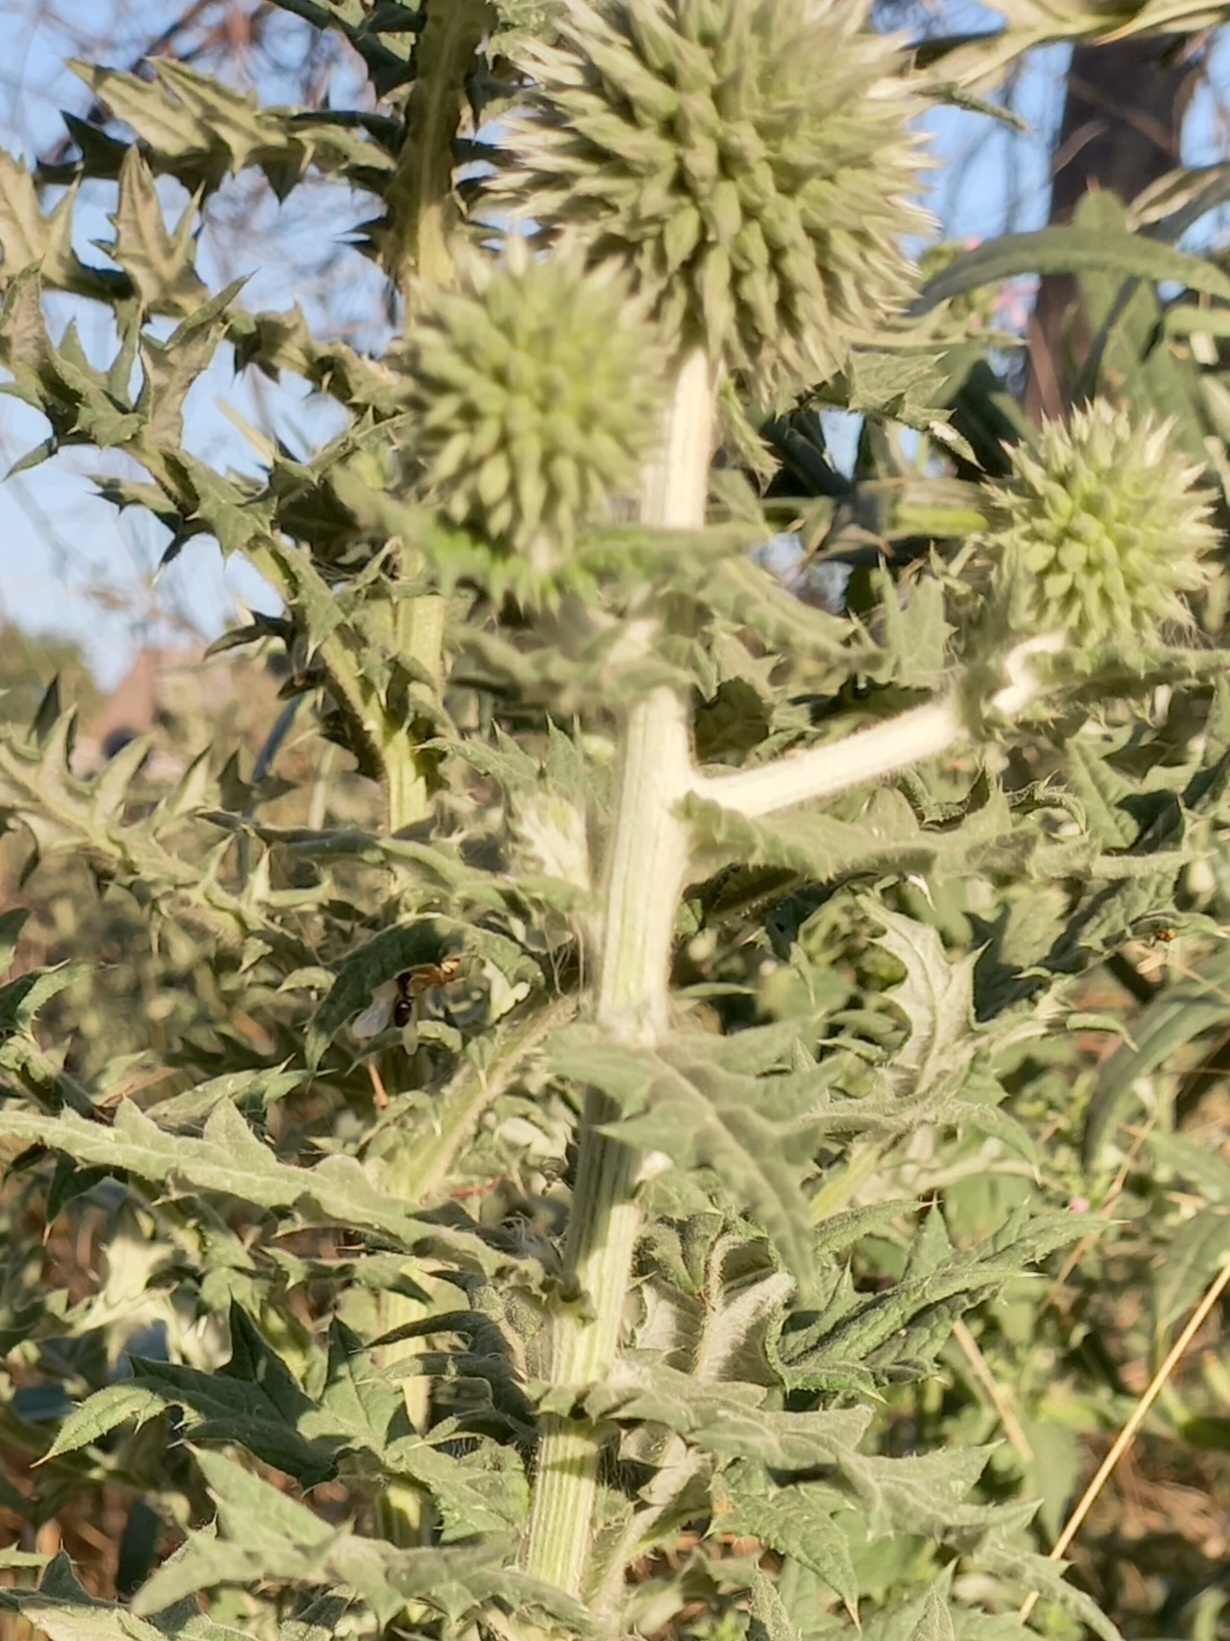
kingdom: Plantae
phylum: Tracheophyta
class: Magnoliopsida
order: Asterales
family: Asteraceae
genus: Echinops
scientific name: Echinops sphaerocephalus
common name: Glandular globe-thistle
